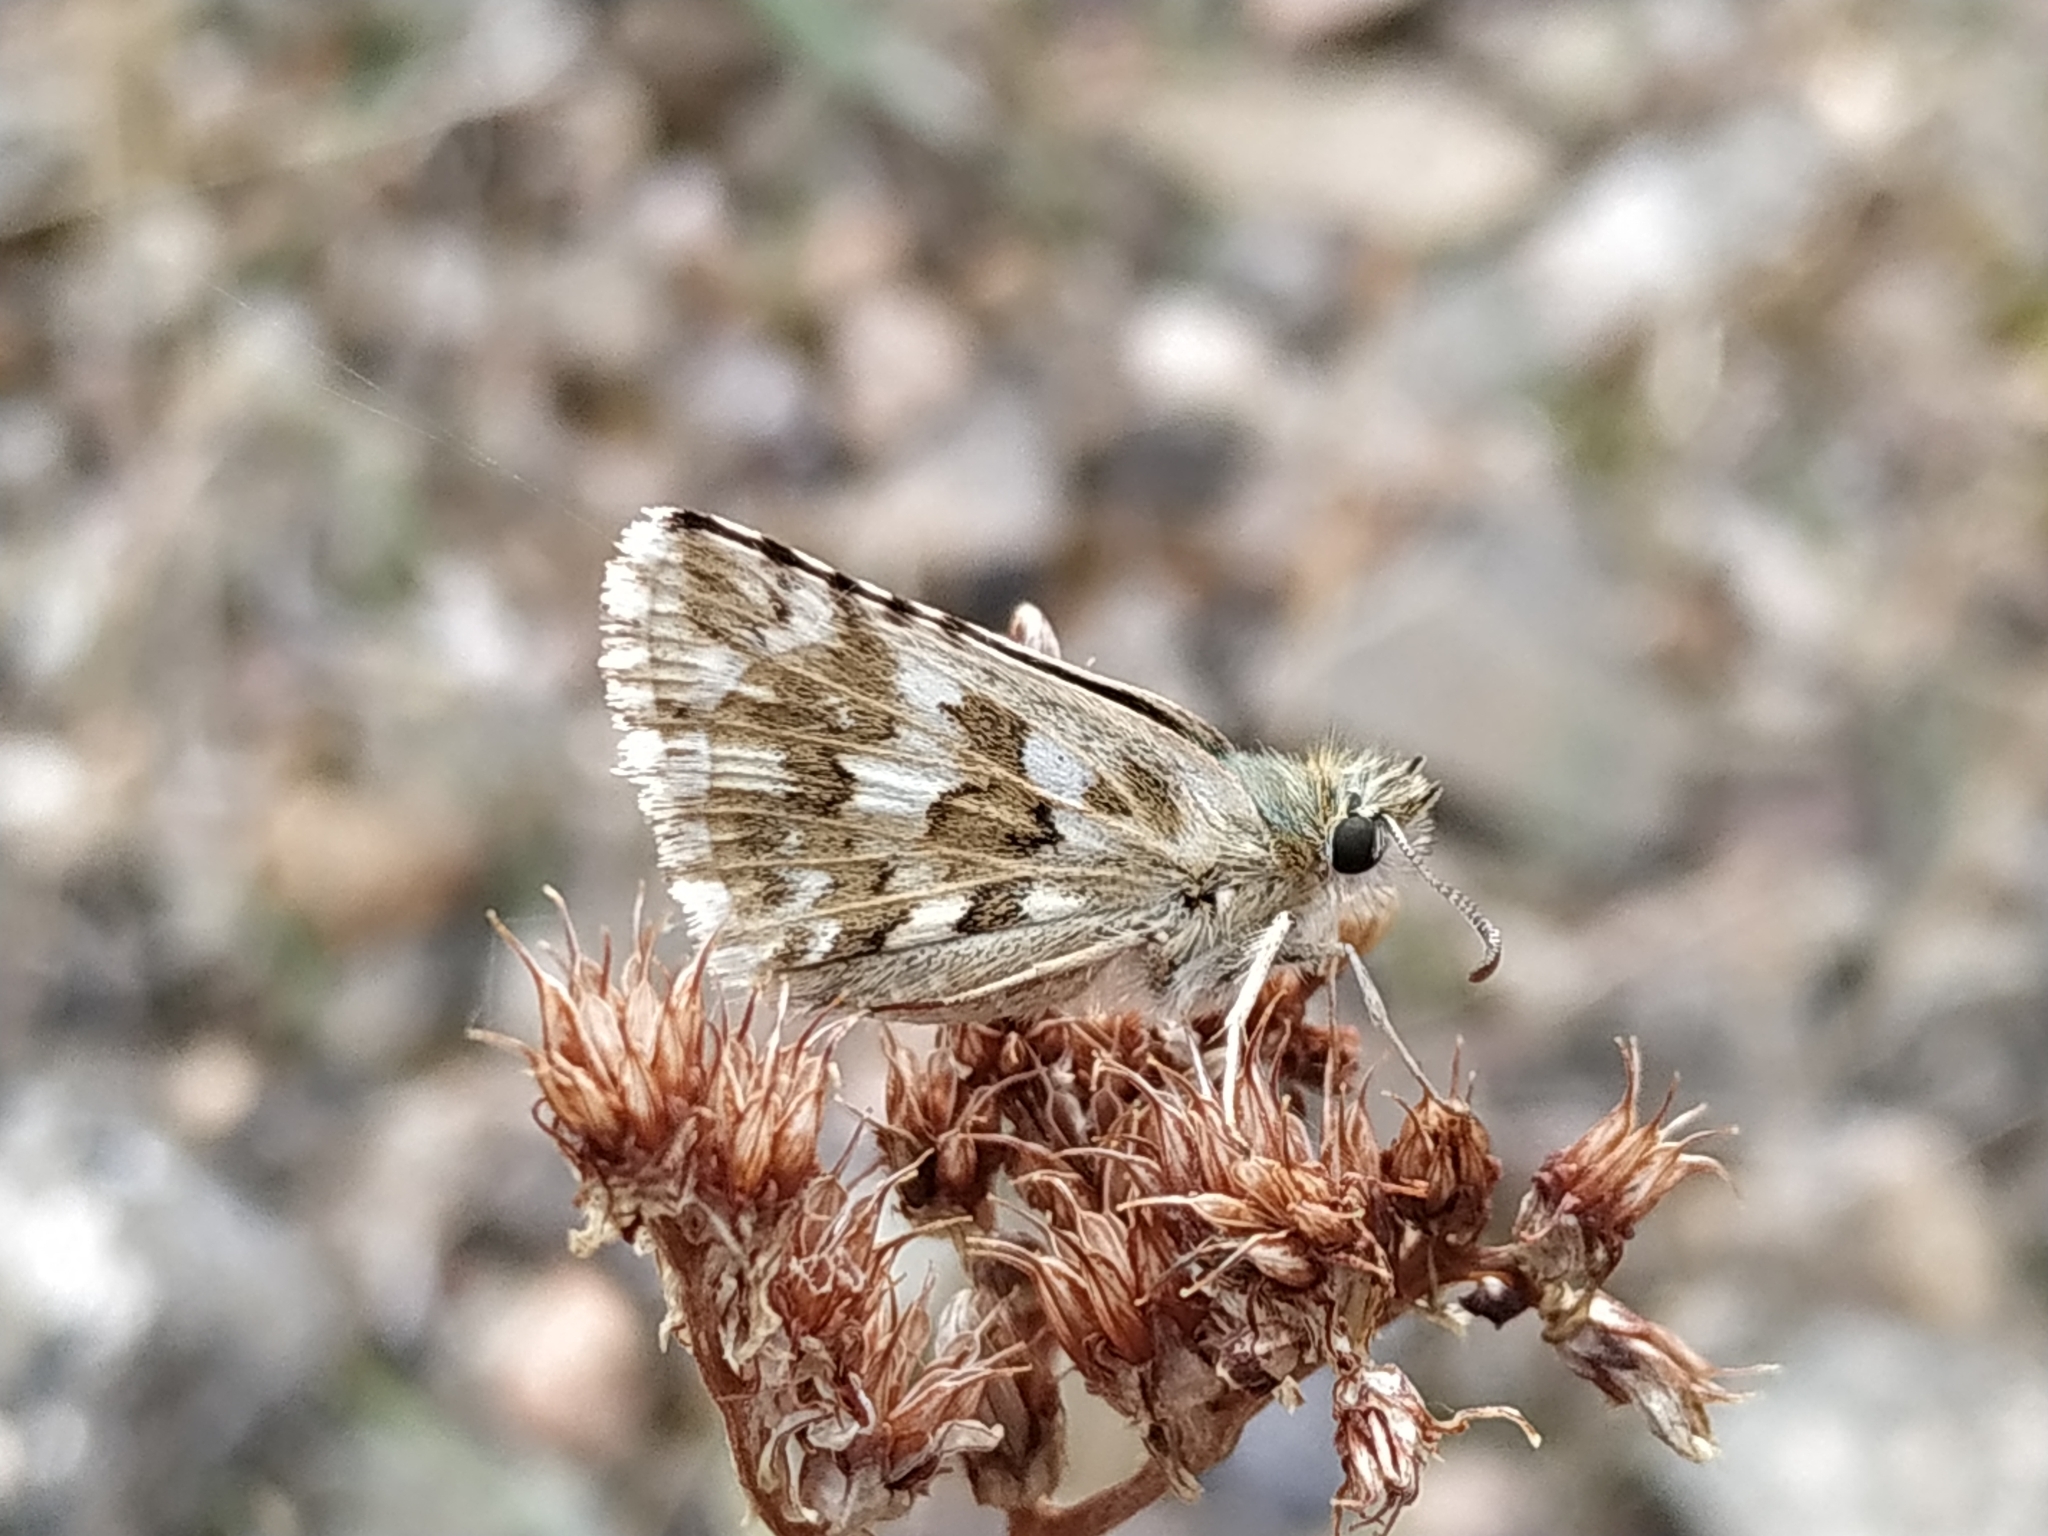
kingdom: Animalia
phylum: Arthropoda
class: Insecta
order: Lepidoptera
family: Hesperiidae
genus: Pyrgus
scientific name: Pyrgus onopordi
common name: Rosy grizzled skipper
